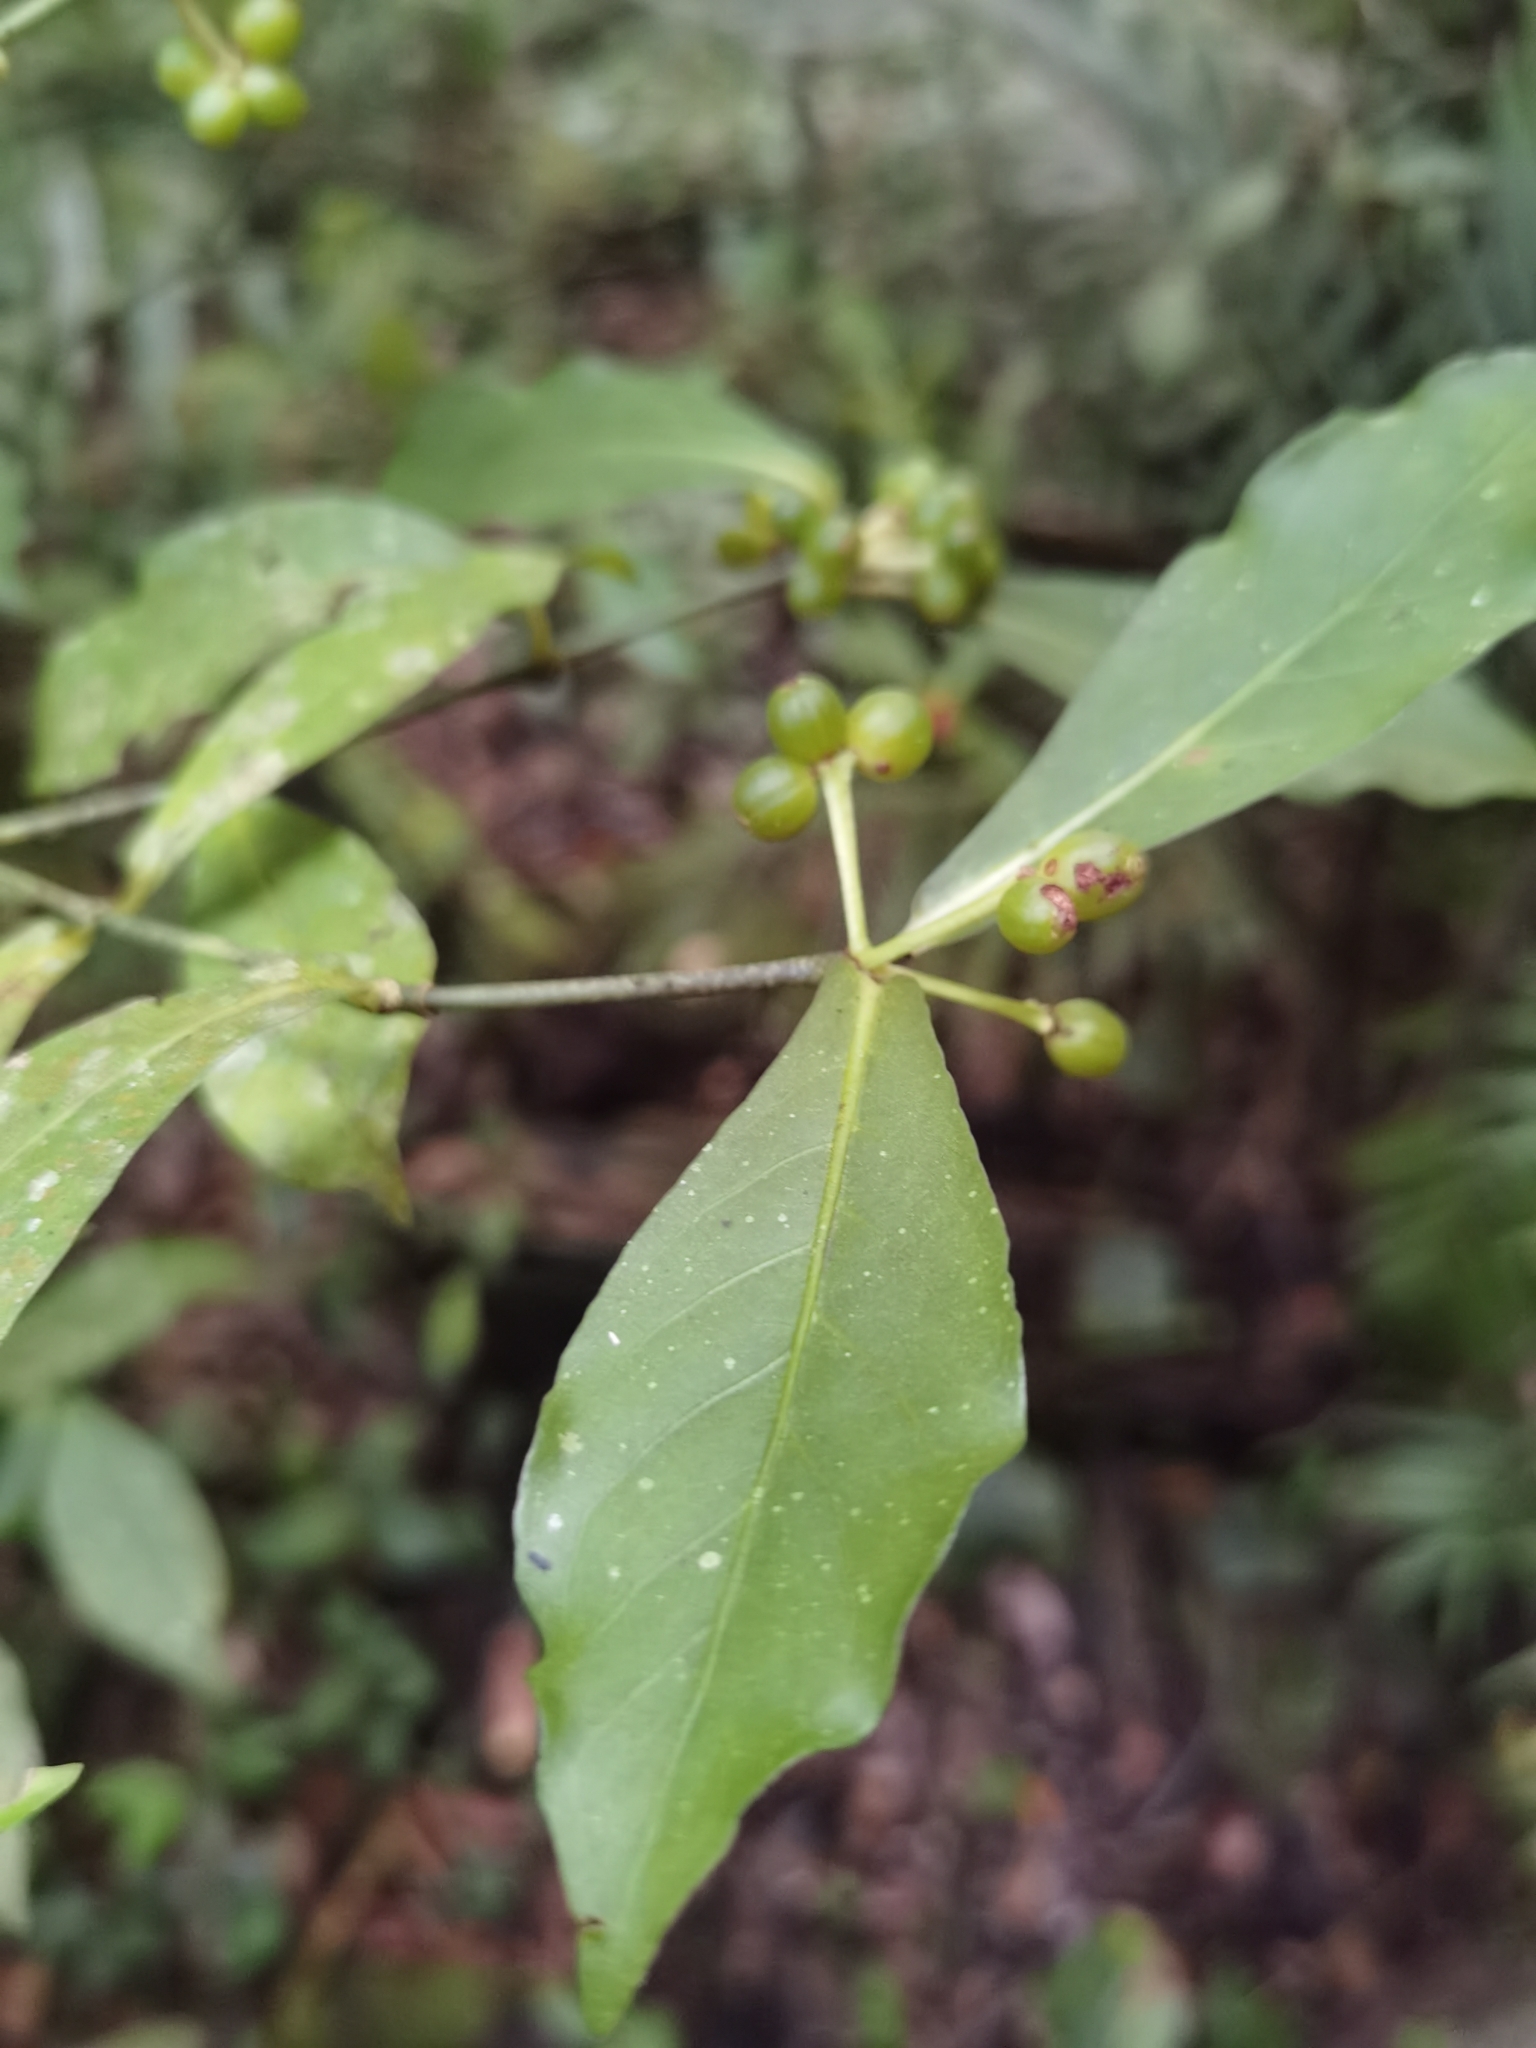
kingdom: Plantae
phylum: Tracheophyta
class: Magnoliopsida
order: Gentianales
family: Rubiaceae
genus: Psychotria
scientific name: Psychotria subsessilis
